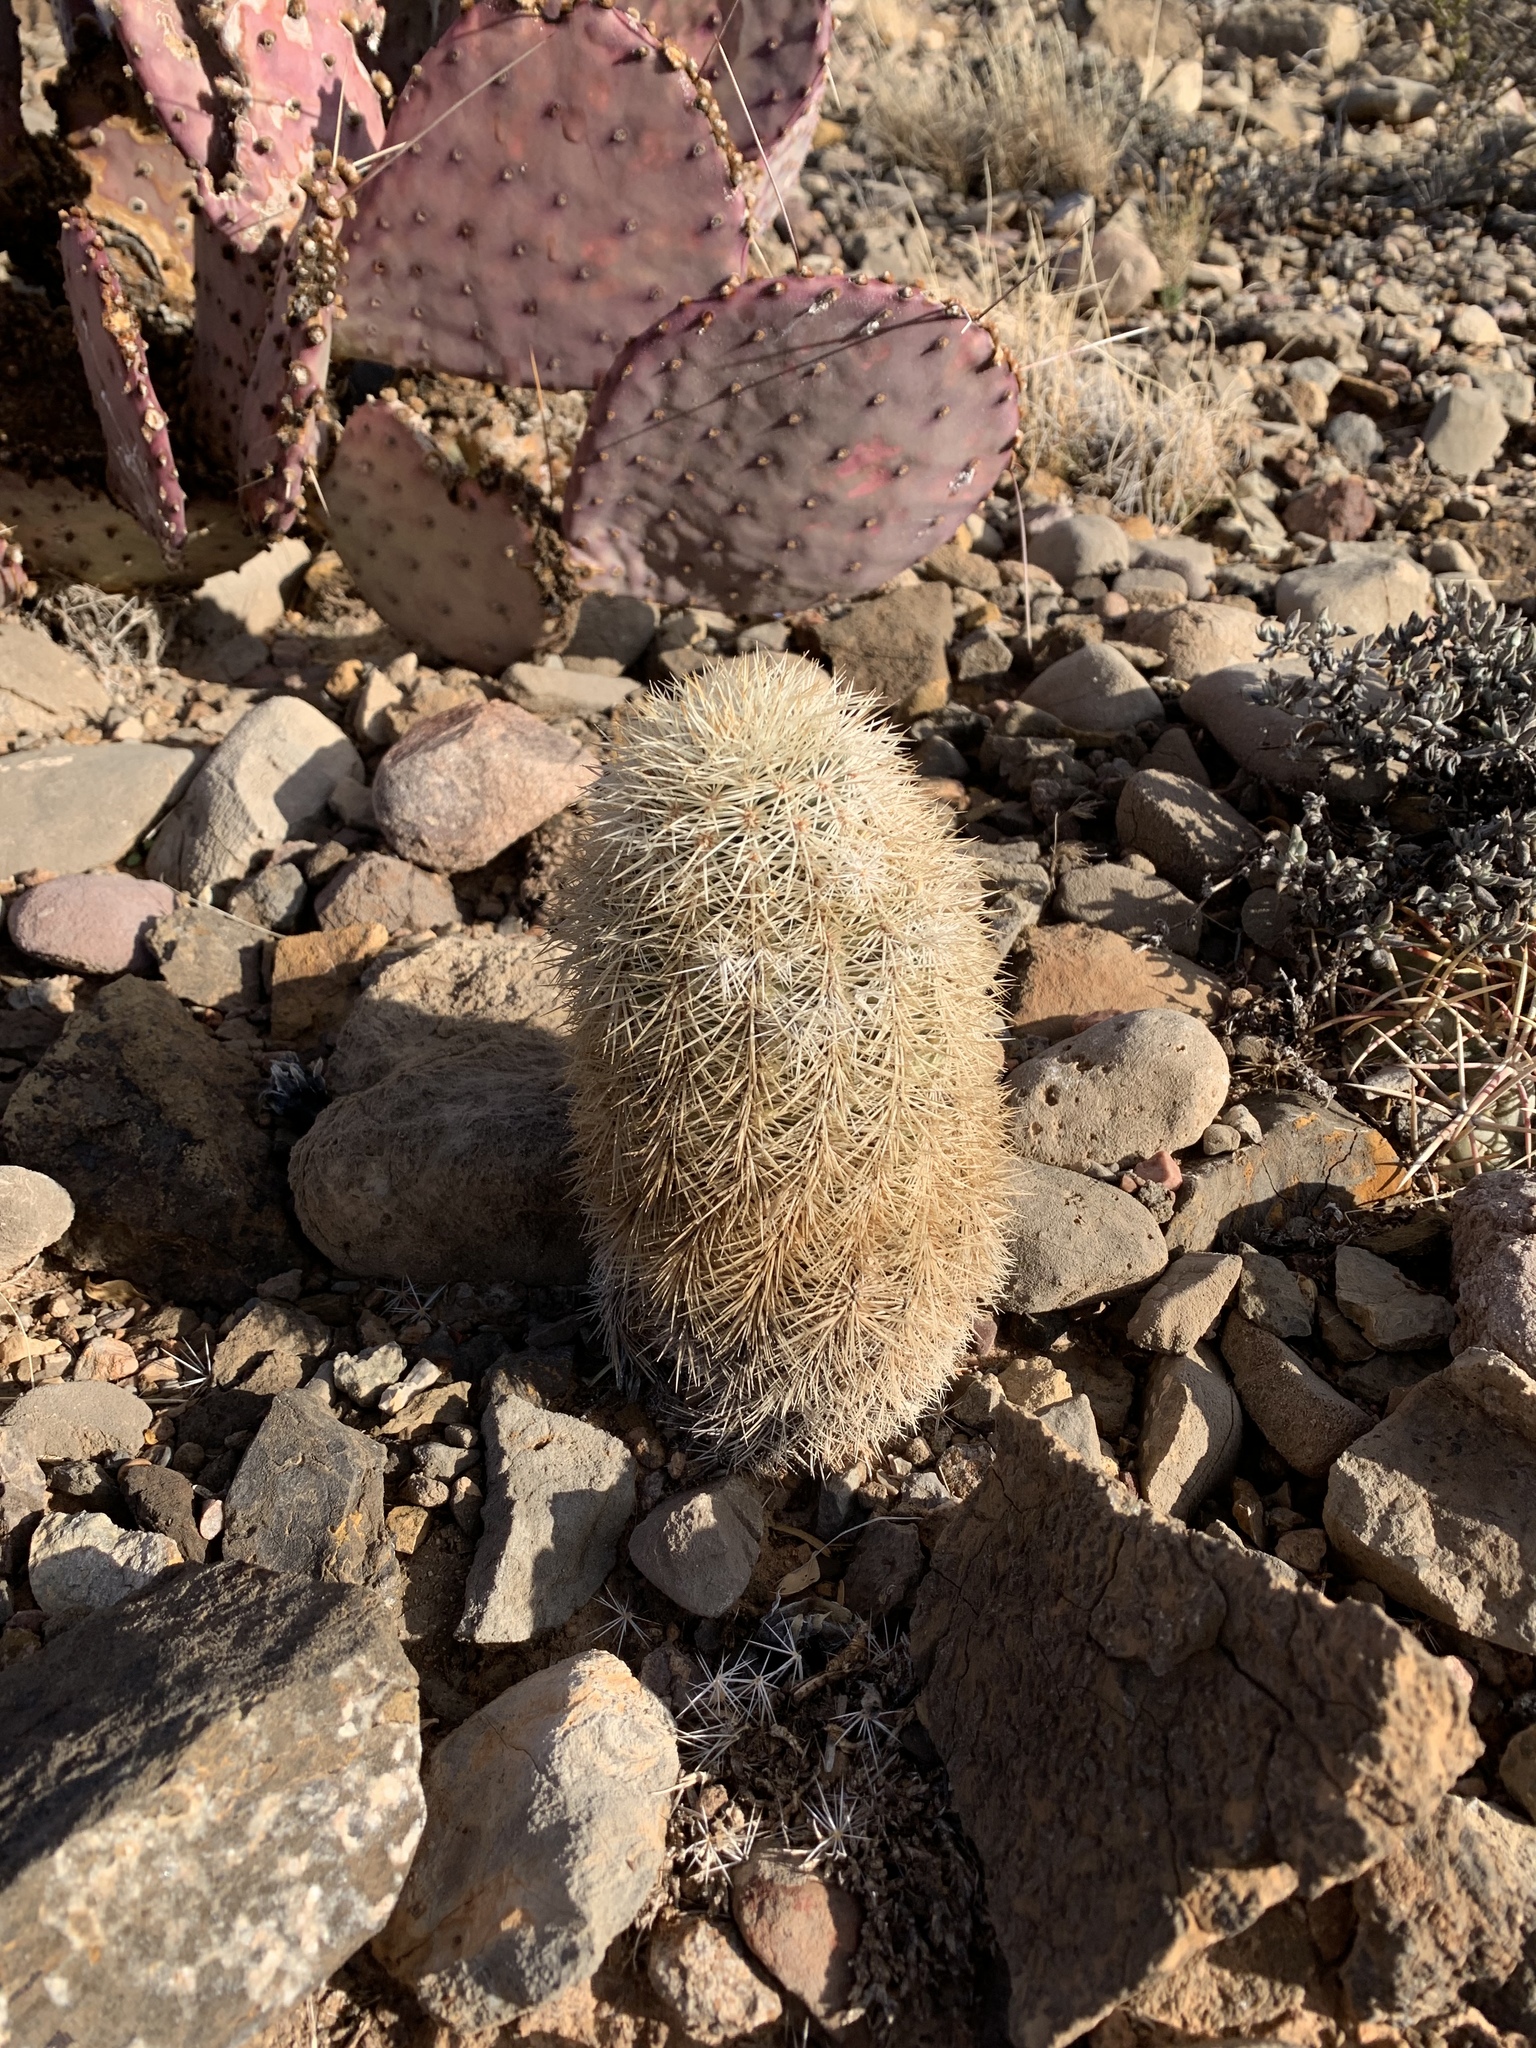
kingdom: Plantae
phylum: Tracheophyta
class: Magnoliopsida
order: Caryophyllales
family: Cactaceae
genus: Echinocereus
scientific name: Echinocereus dasyacanthus
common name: Spiny hedgehog cactus
